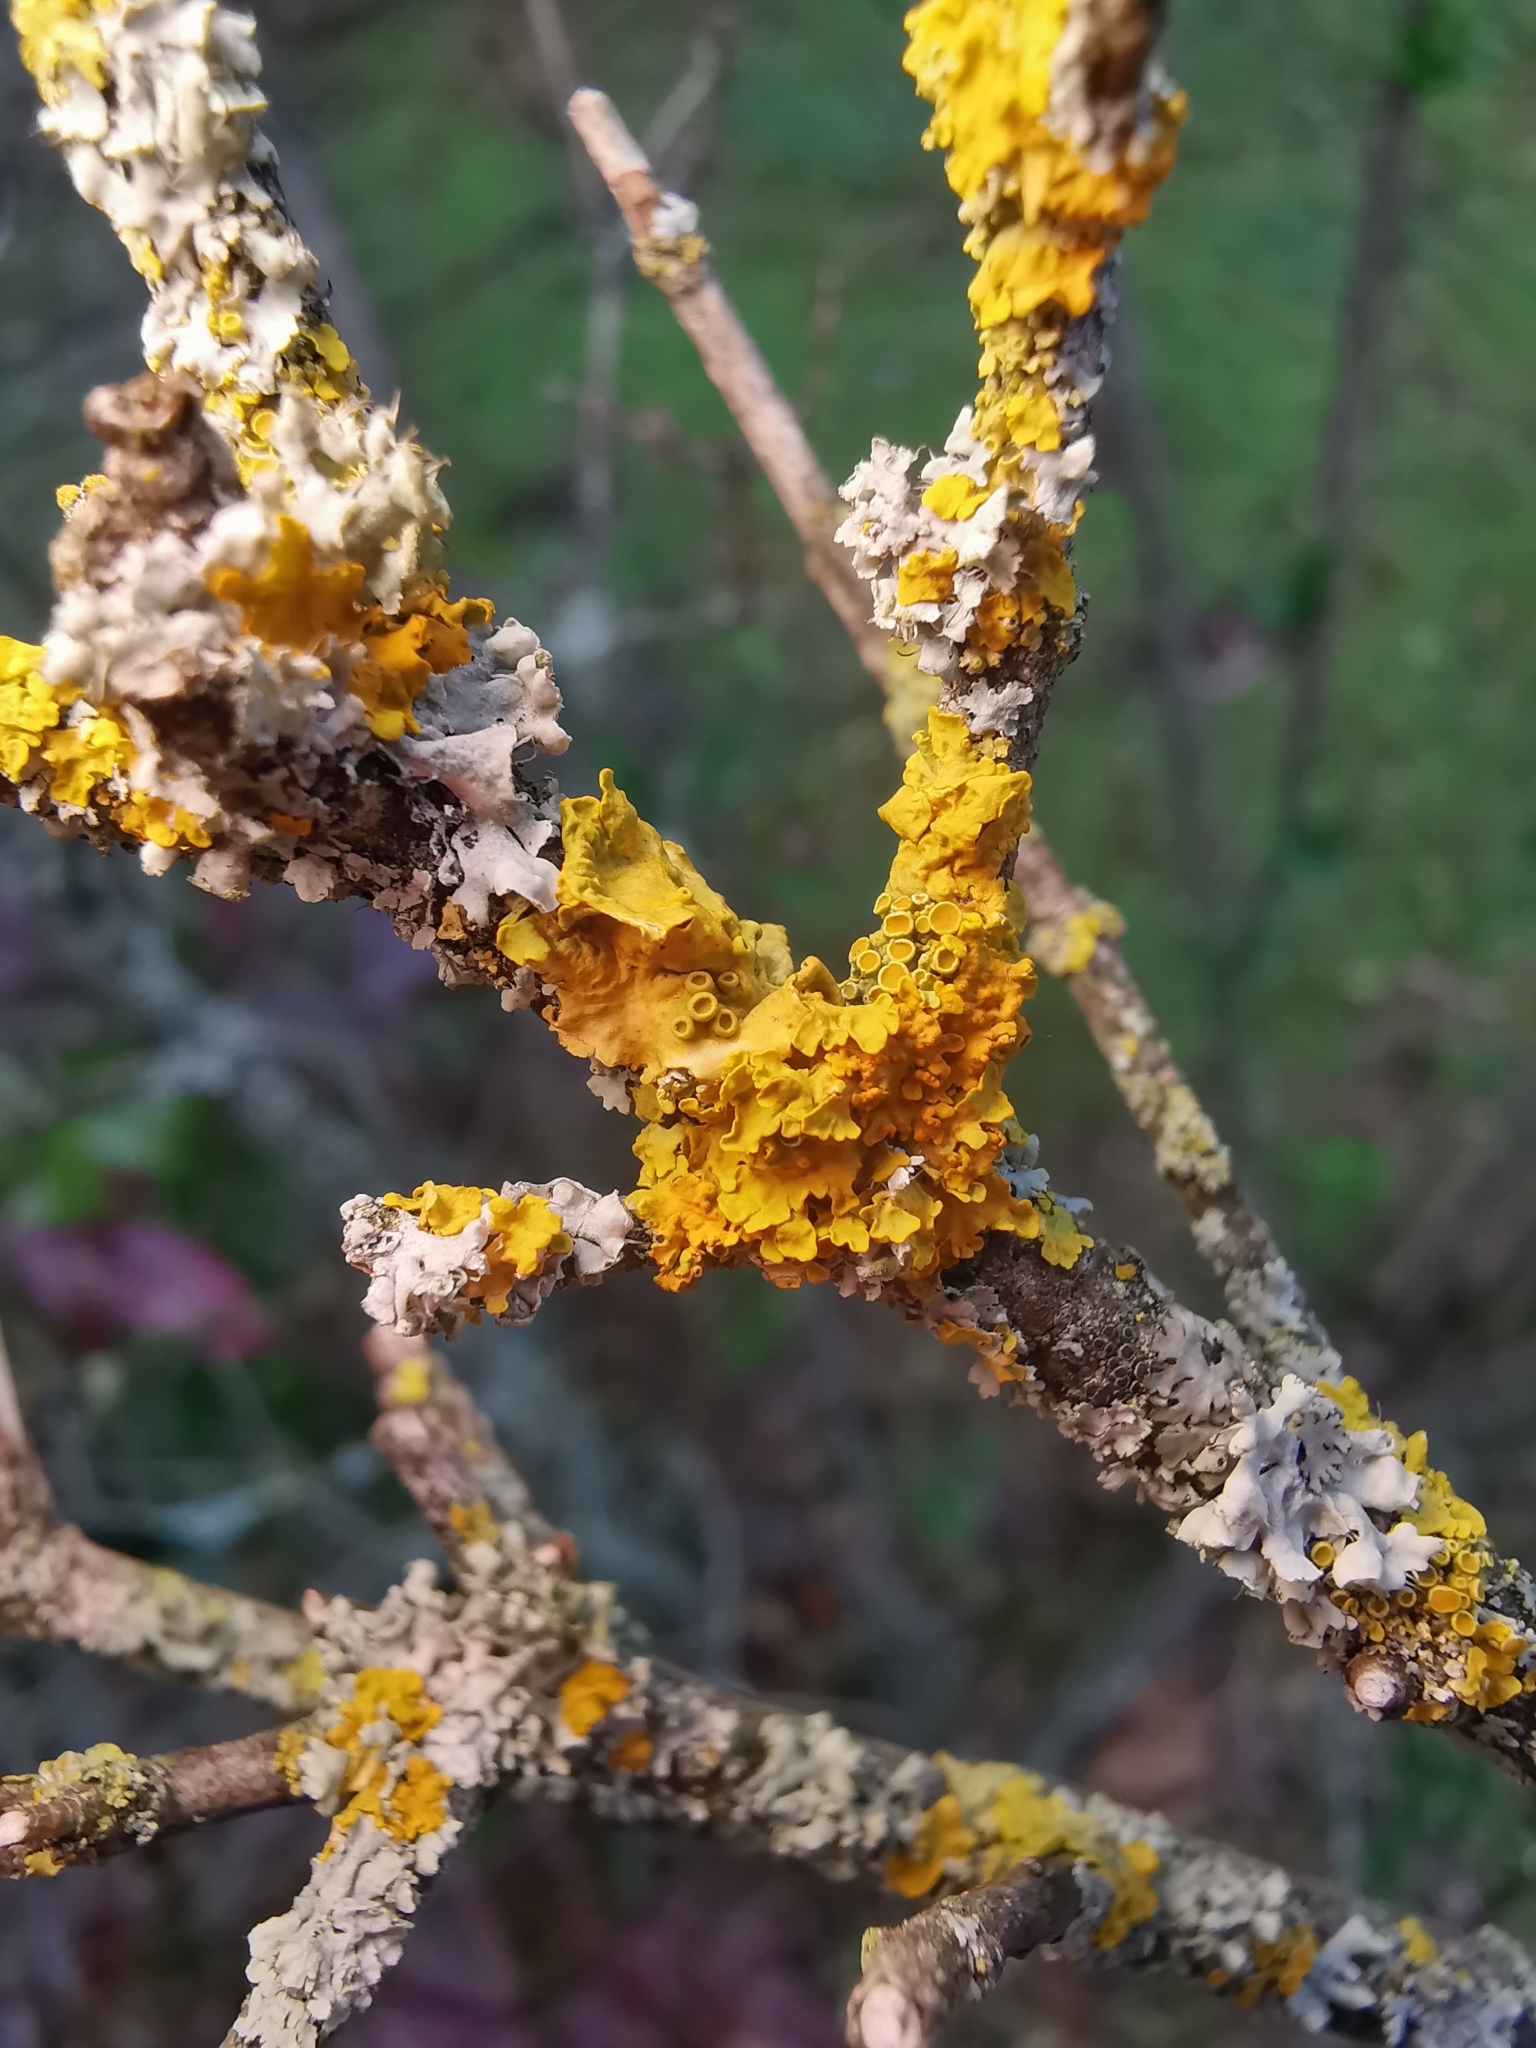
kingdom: Fungi
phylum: Ascomycota
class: Lecanoromycetes
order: Teloschistales
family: Teloschistaceae
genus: Xanthoria
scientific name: Xanthoria parietina
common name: Common orange lichen
